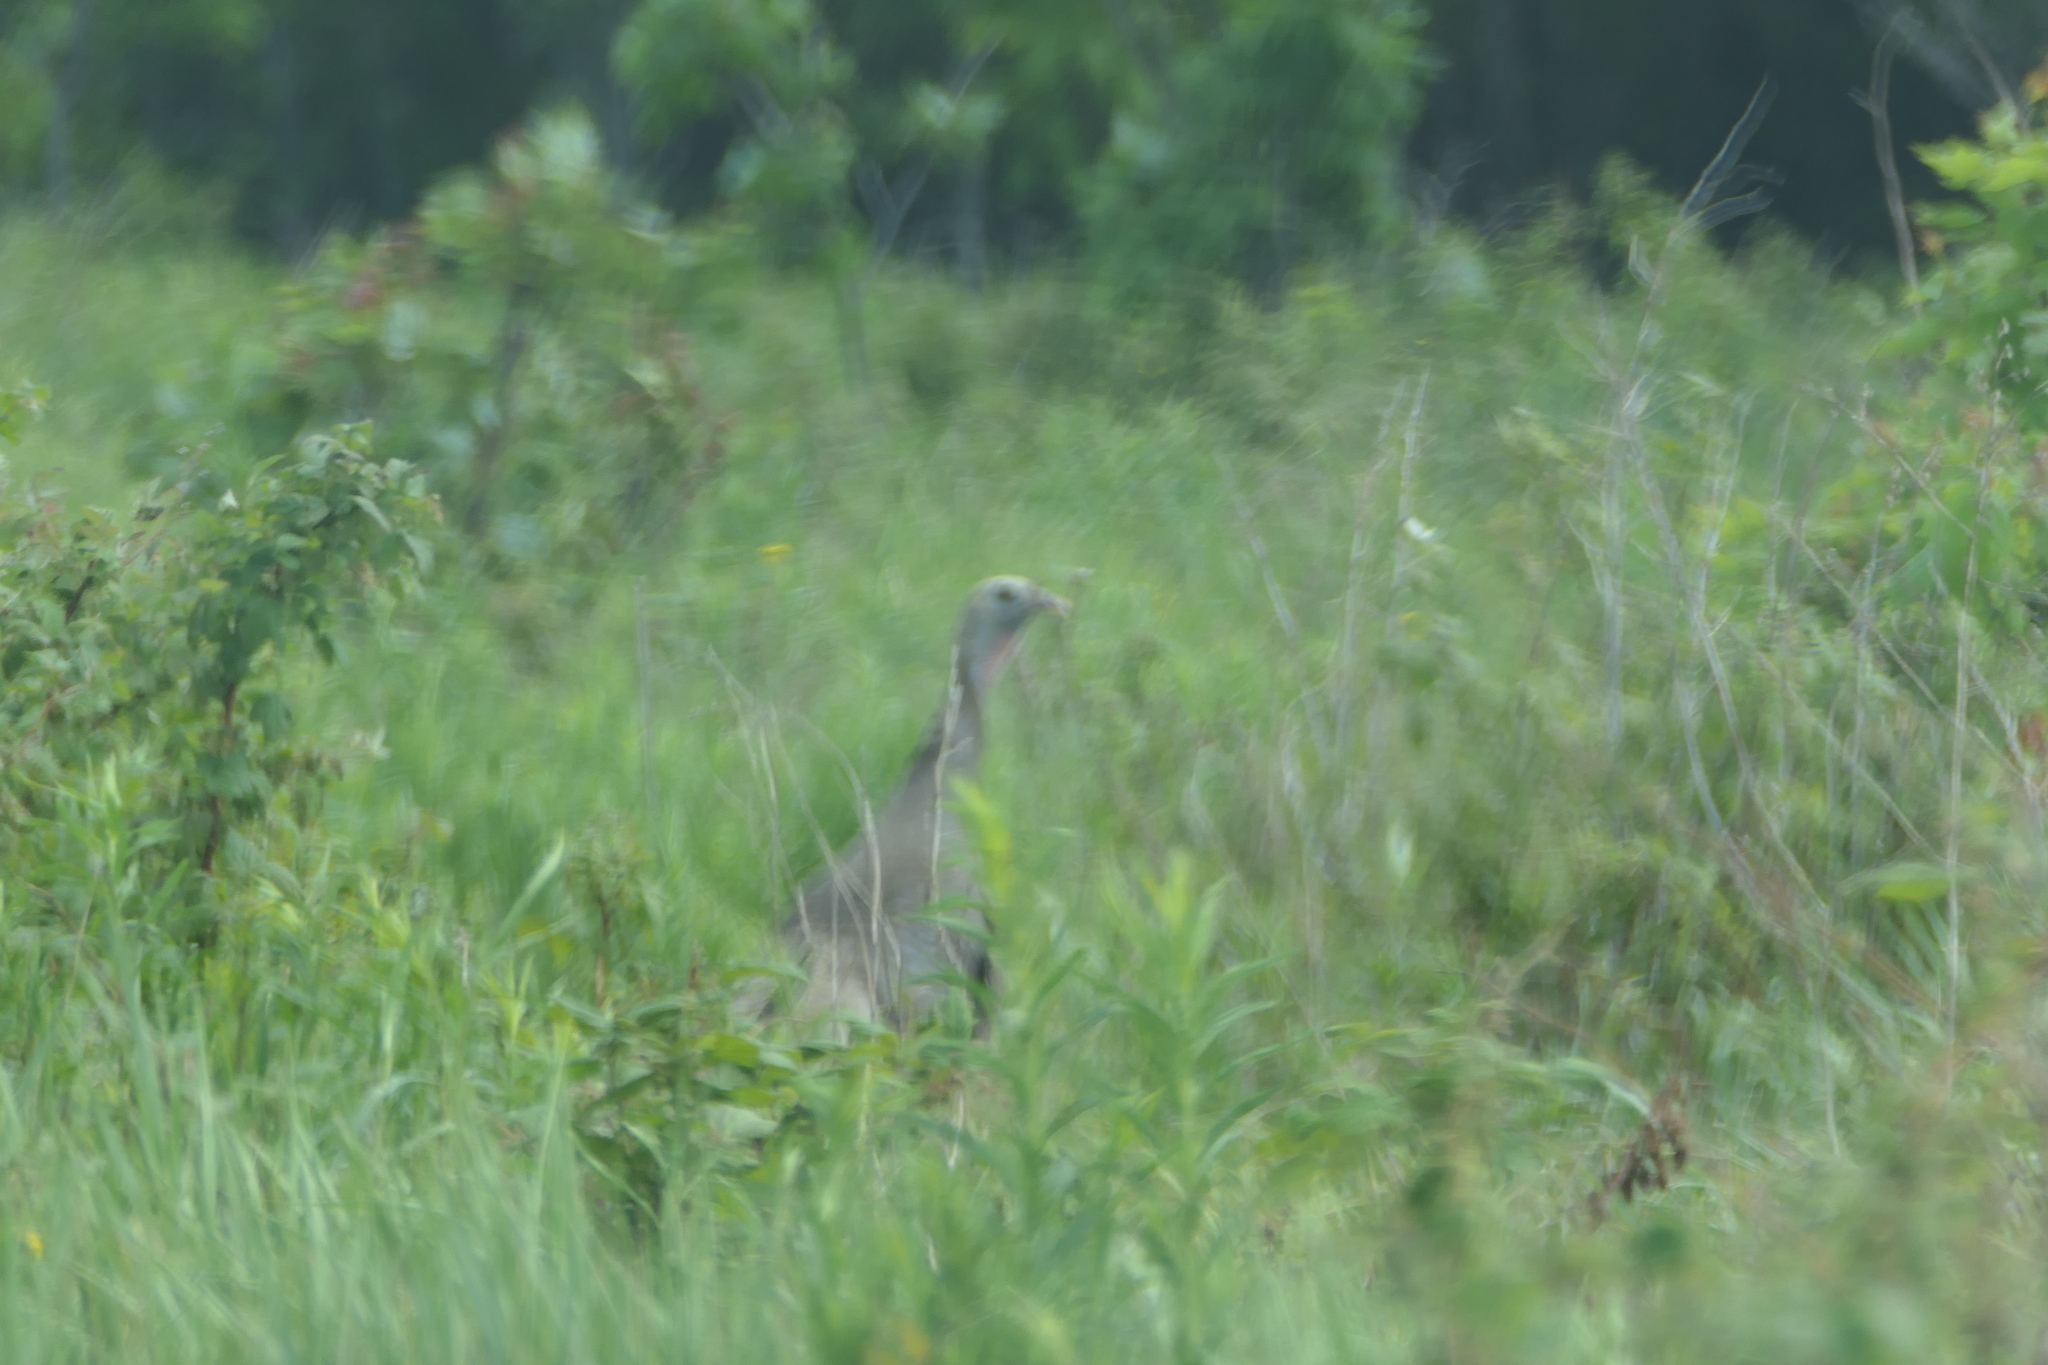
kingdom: Animalia
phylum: Chordata
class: Aves
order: Galliformes
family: Phasianidae
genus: Meleagris
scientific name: Meleagris gallopavo
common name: Wild turkey
